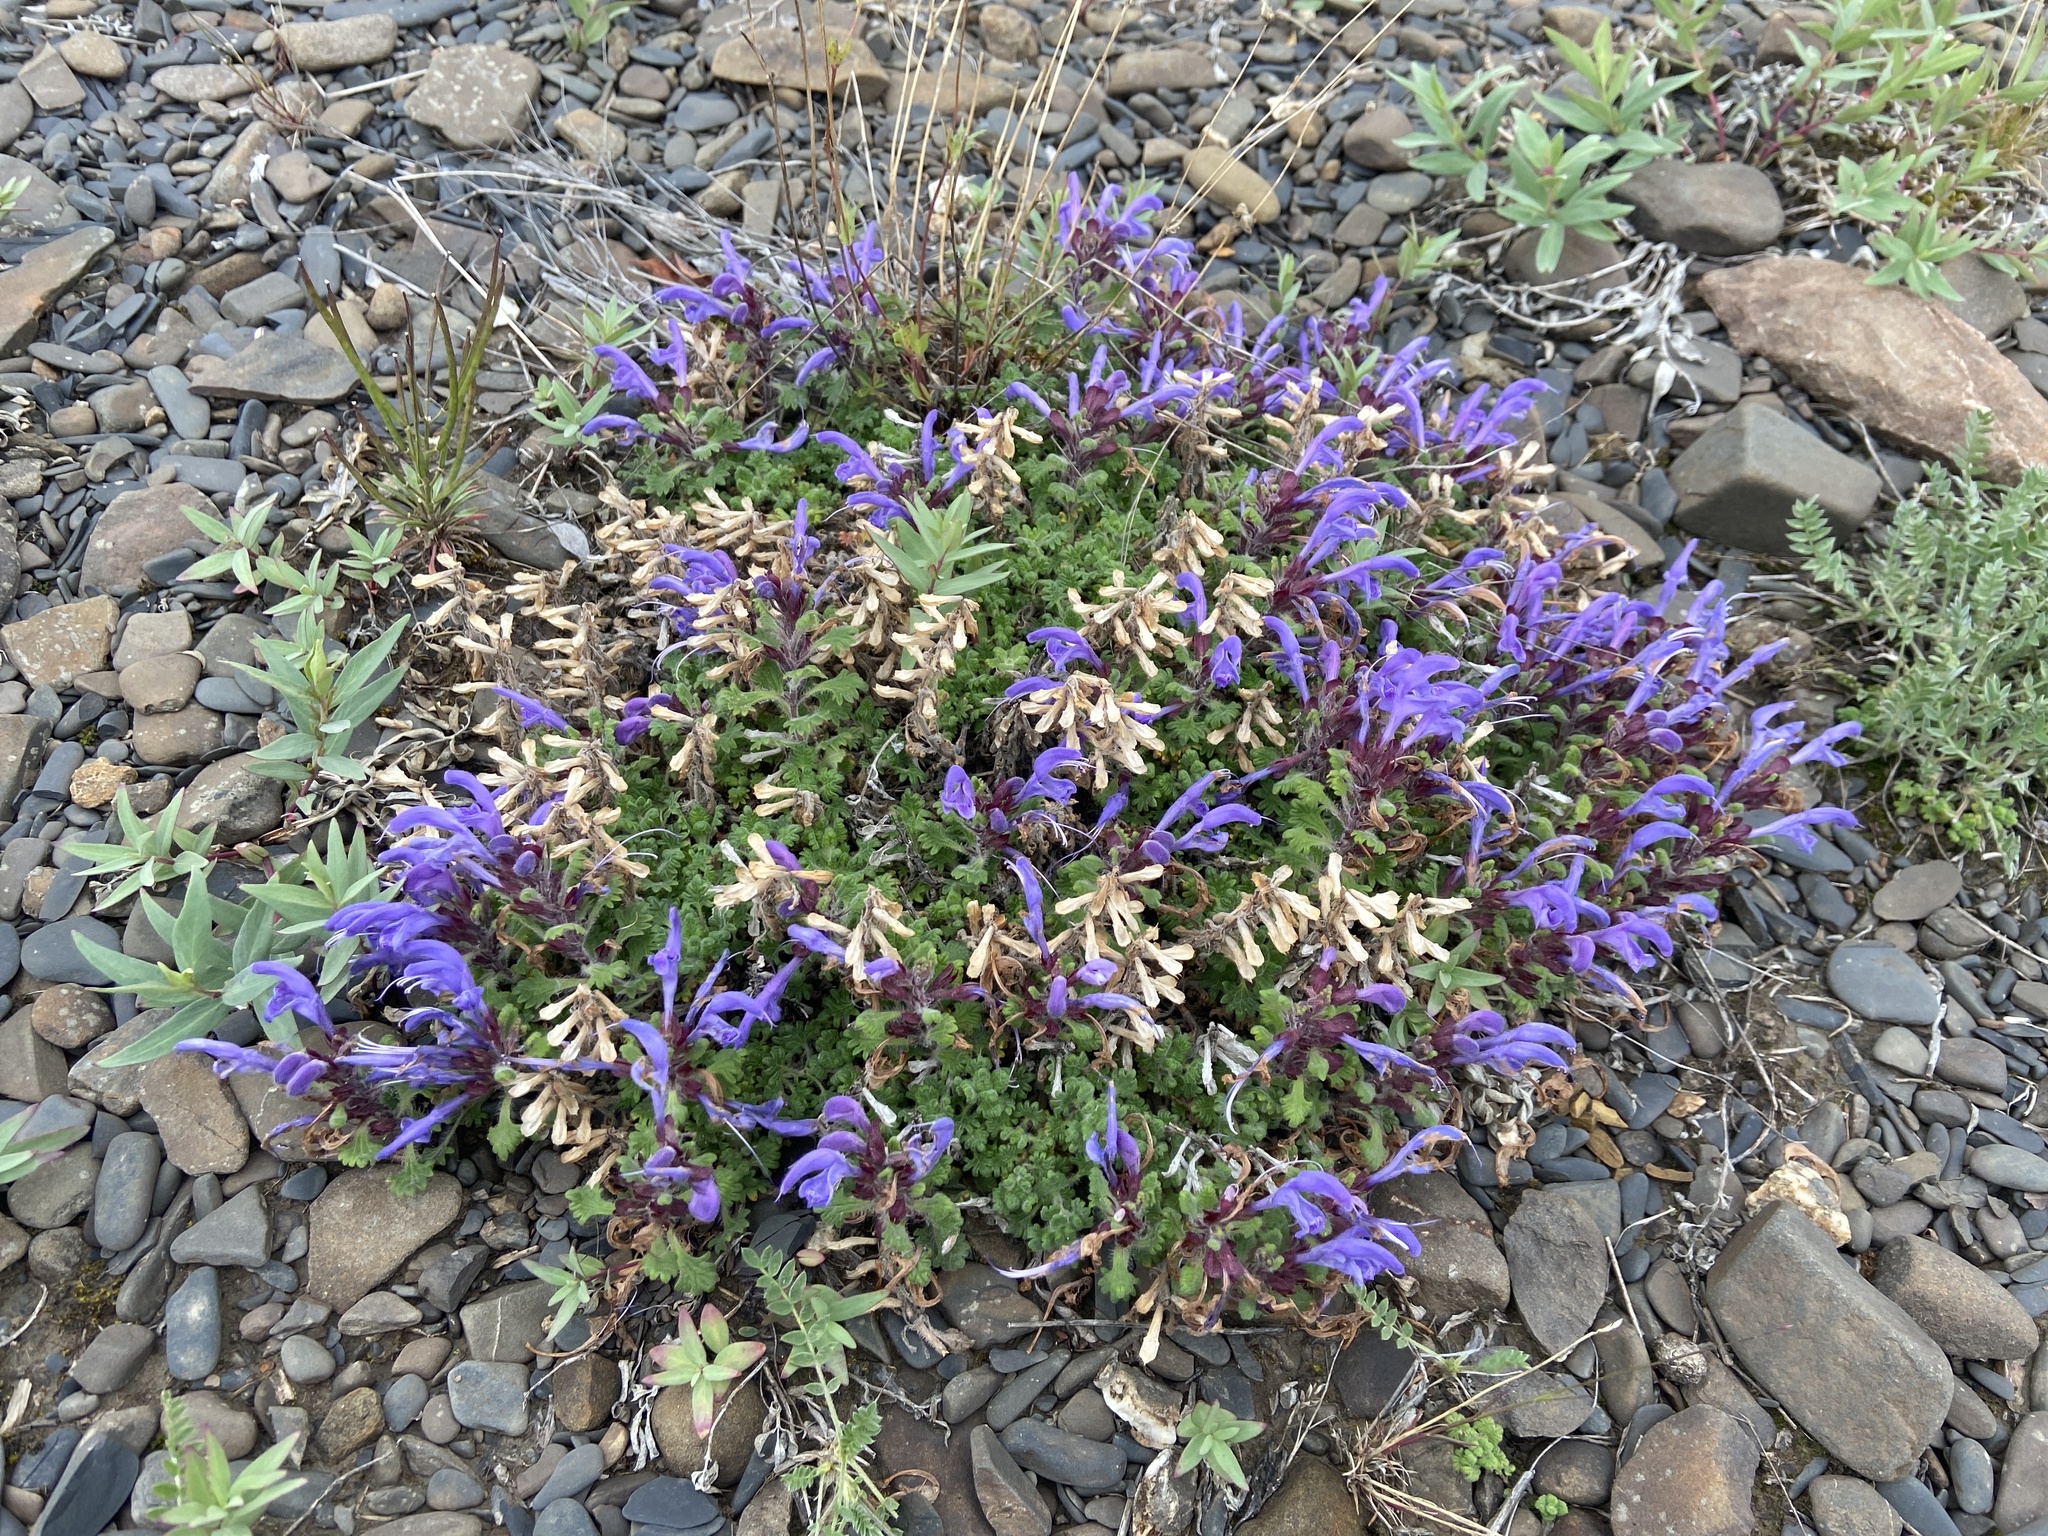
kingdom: Plantae
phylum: Tracheophyta
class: Magnoliopsida
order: Lamiales
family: Lamiaceae
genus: Dracocephalum
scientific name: Dracocephalum palmatum
